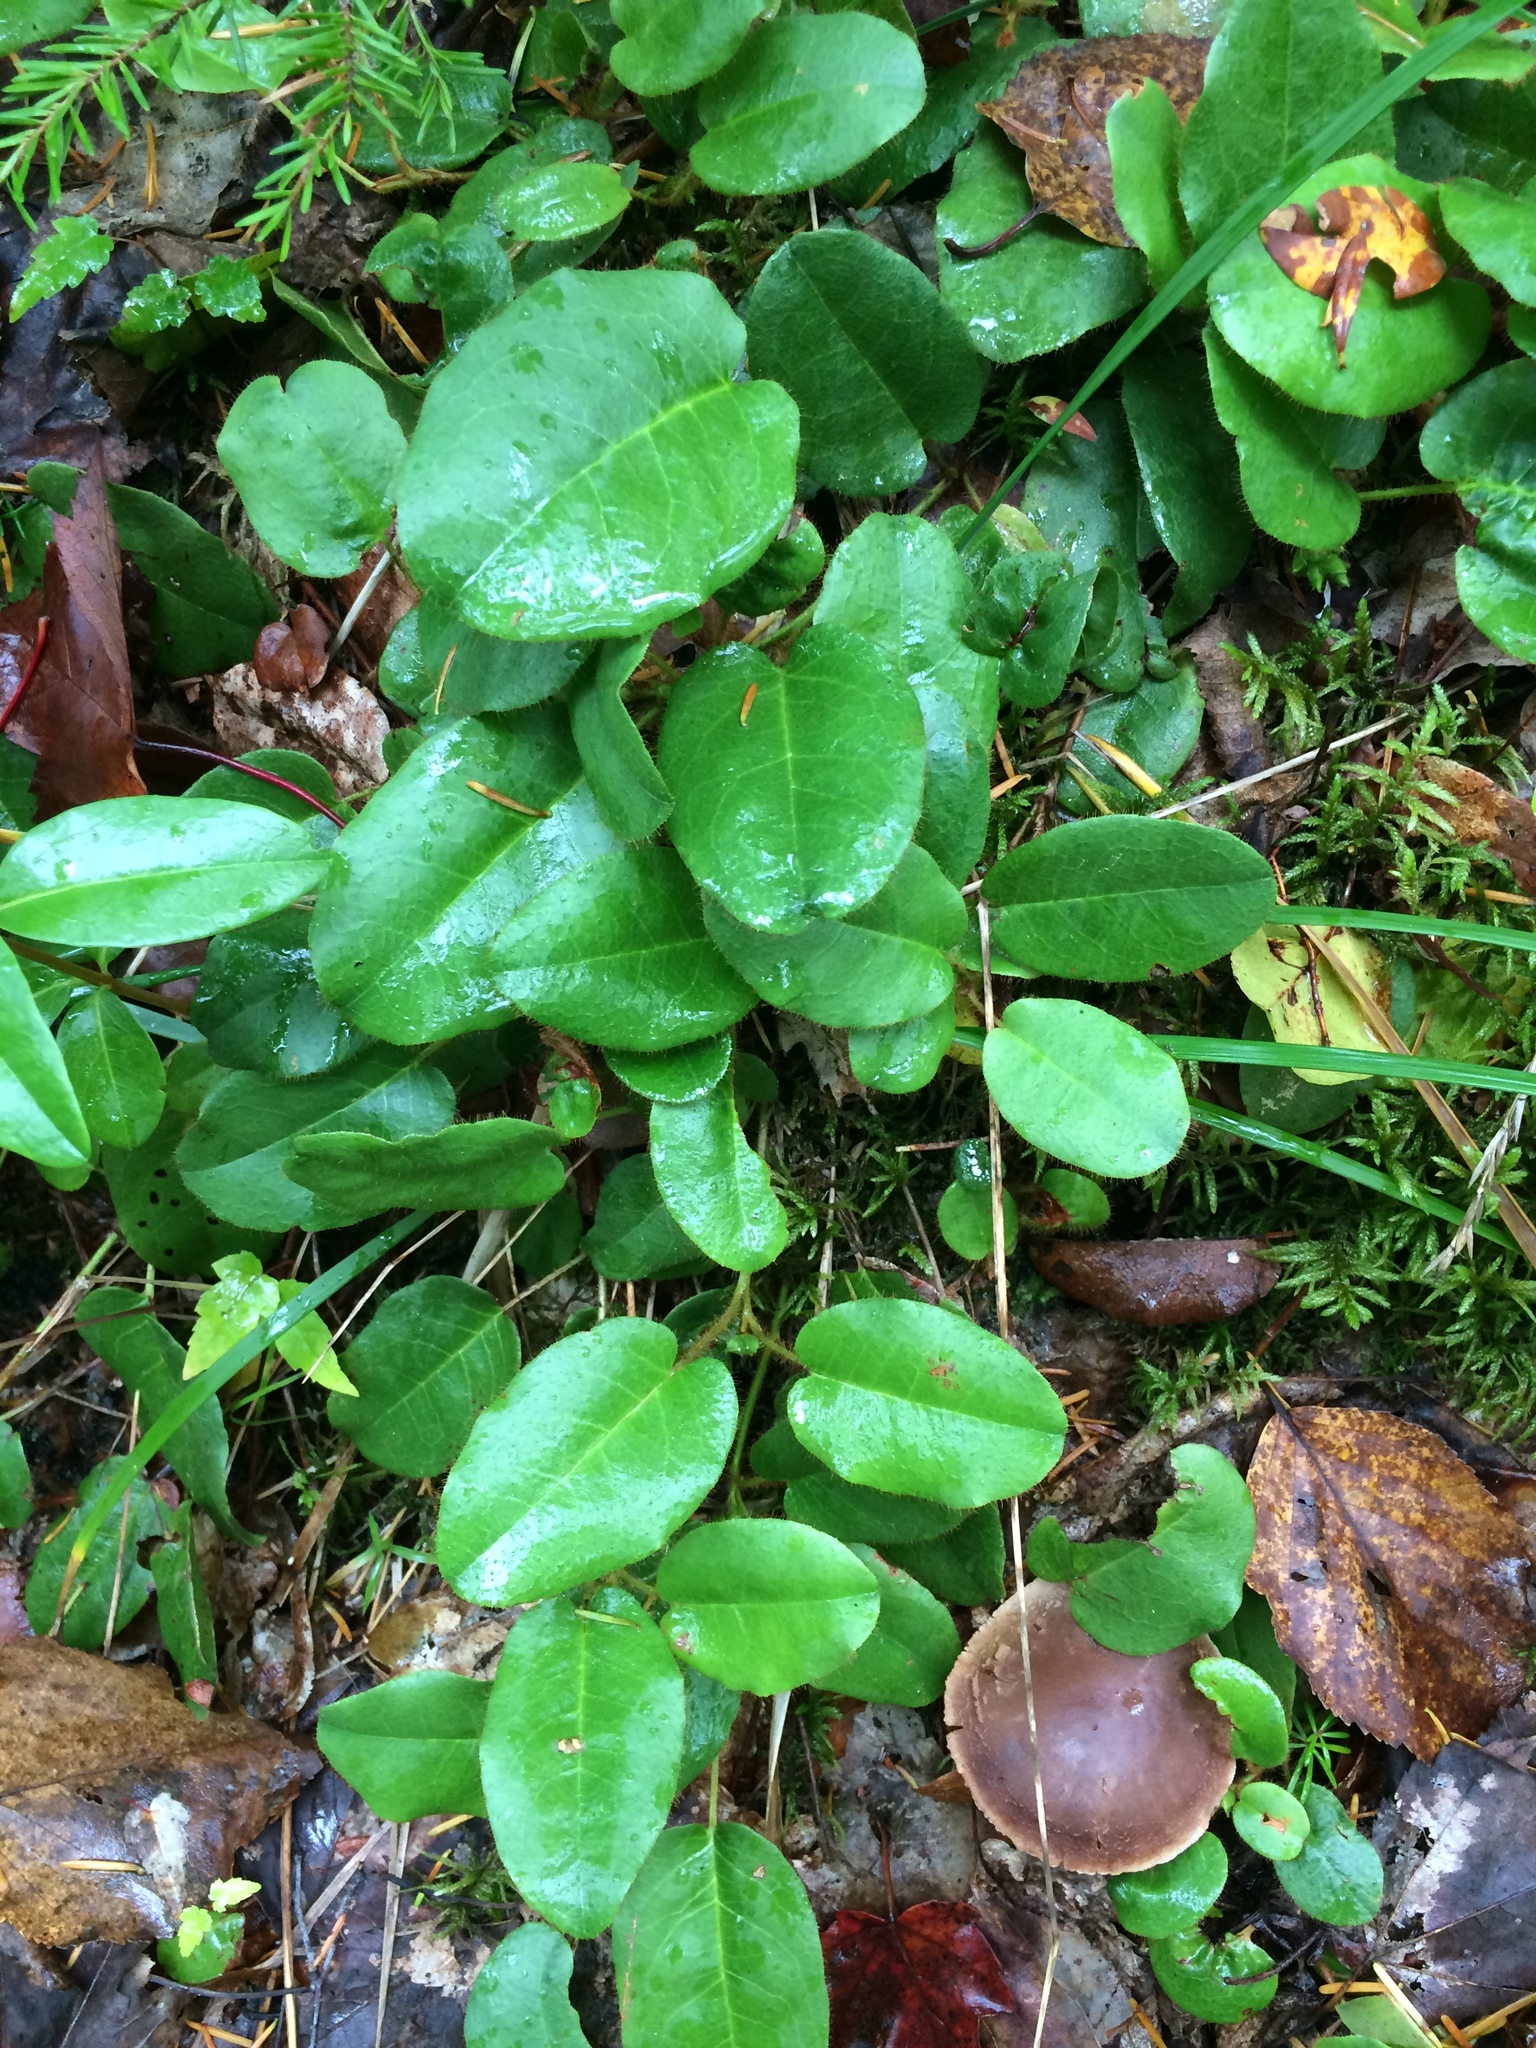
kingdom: Plantae
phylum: Tracheophyta
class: Magnoliopsida
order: Ericales
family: Ericaceae
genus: Epigaea
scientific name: Epigaea repens
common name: Gravelroot
